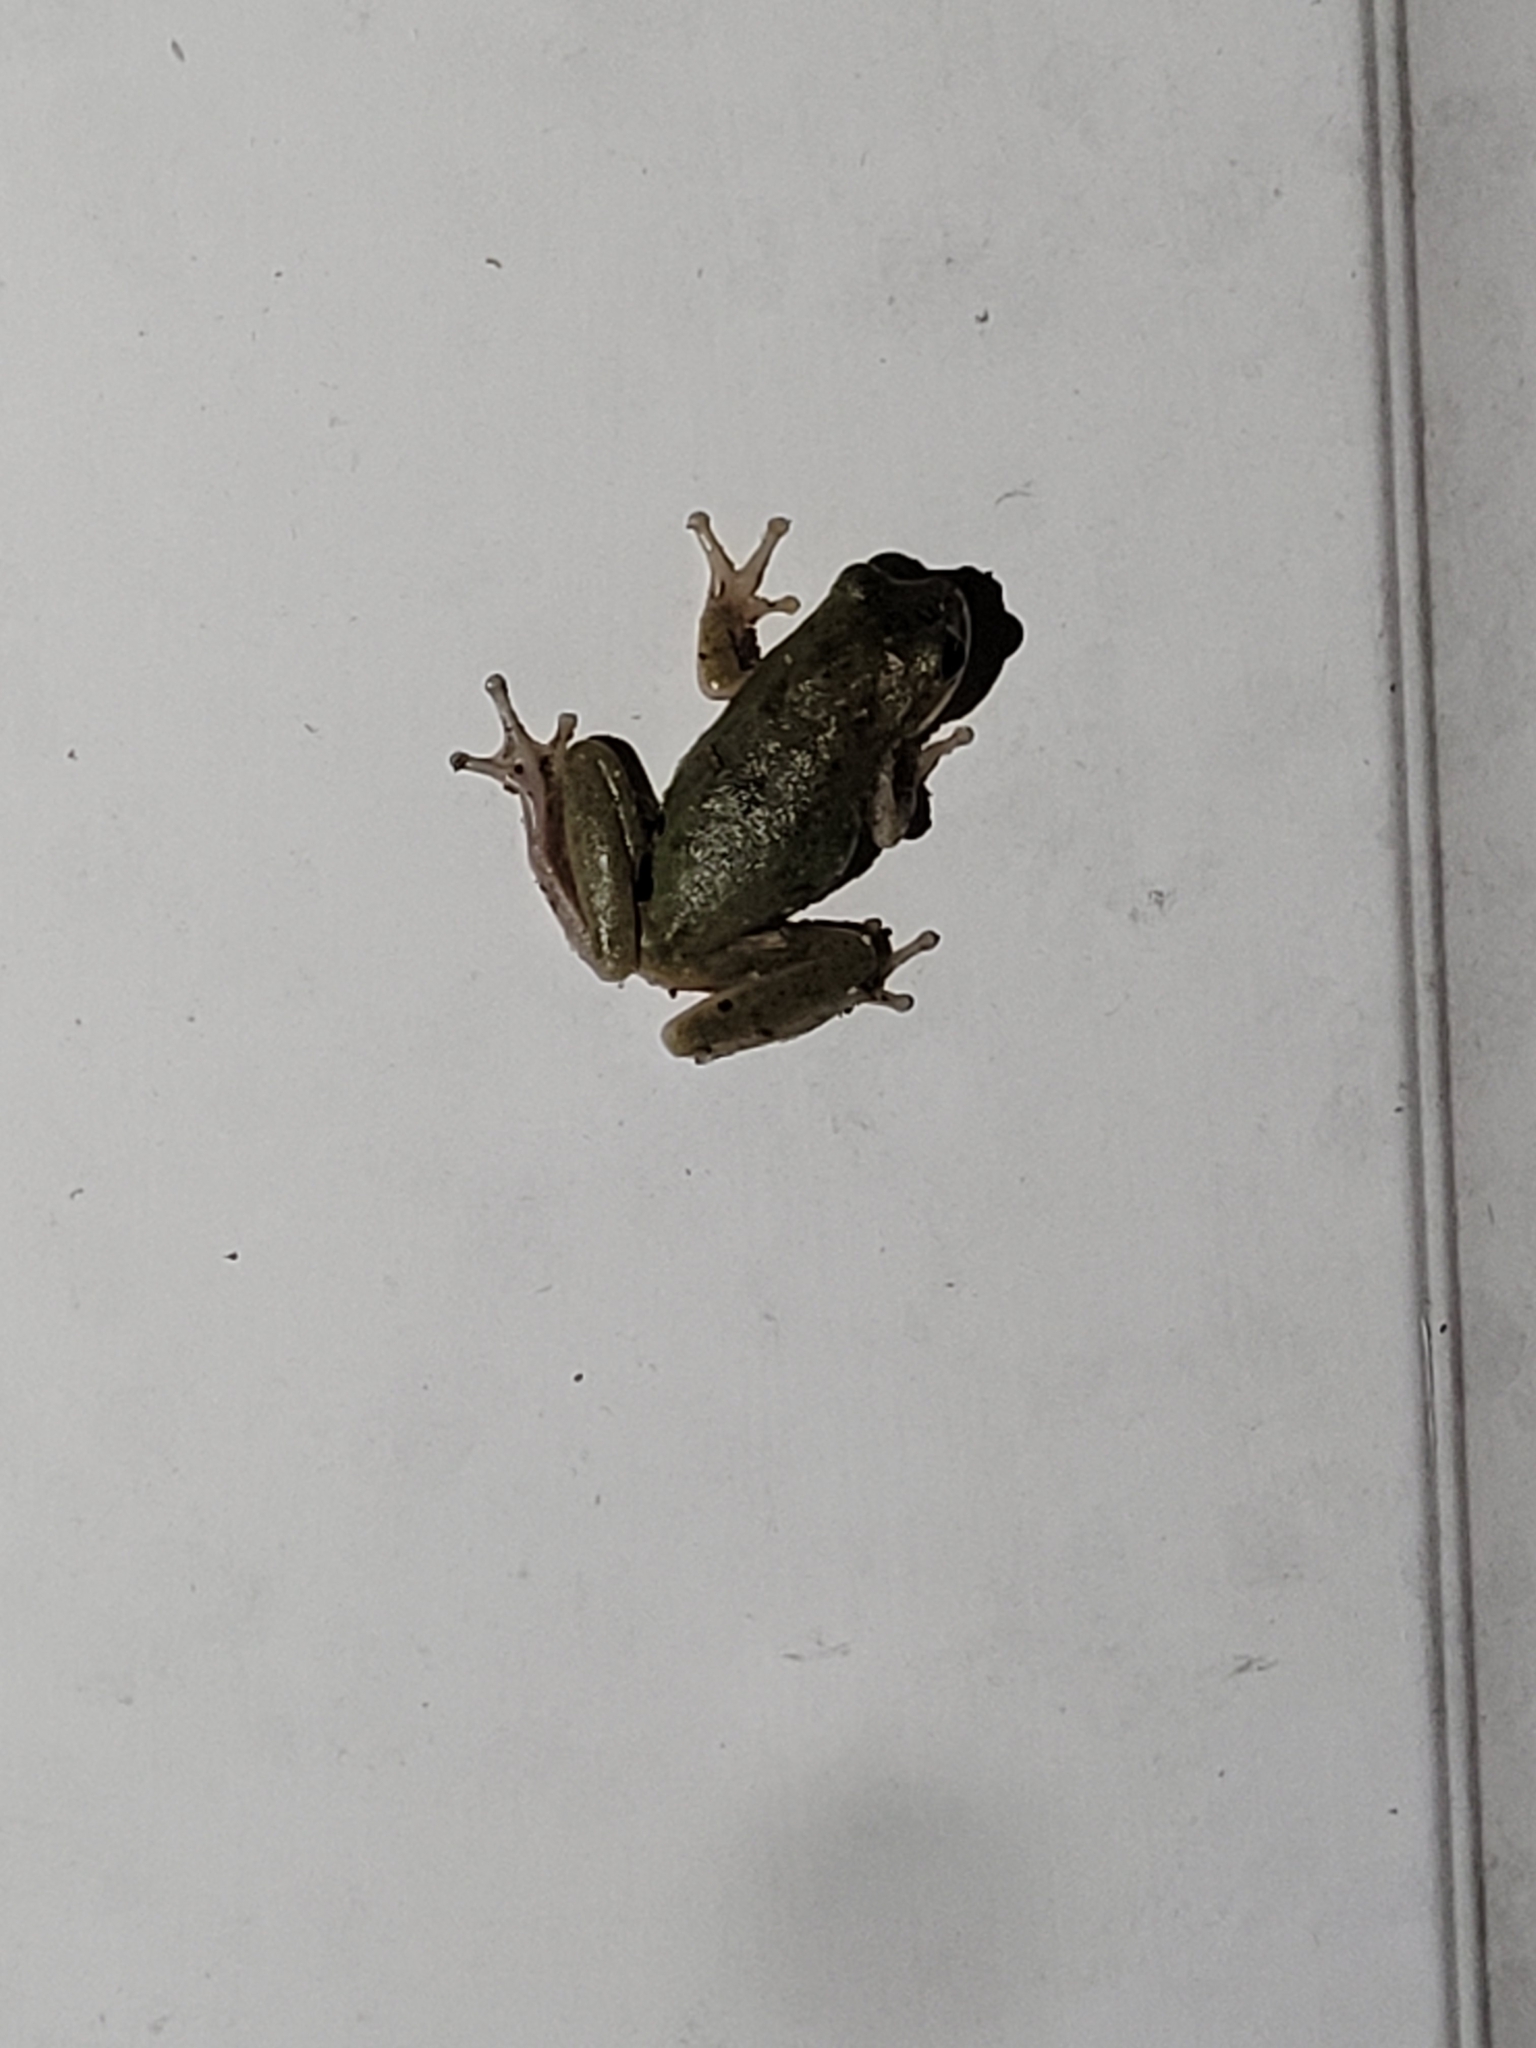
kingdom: Animalia
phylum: Chordata
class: Amphibia
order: Anura
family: Hylidae
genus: Dryophytes
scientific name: Dryophytes squirellus
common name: Squirrel treefrog
